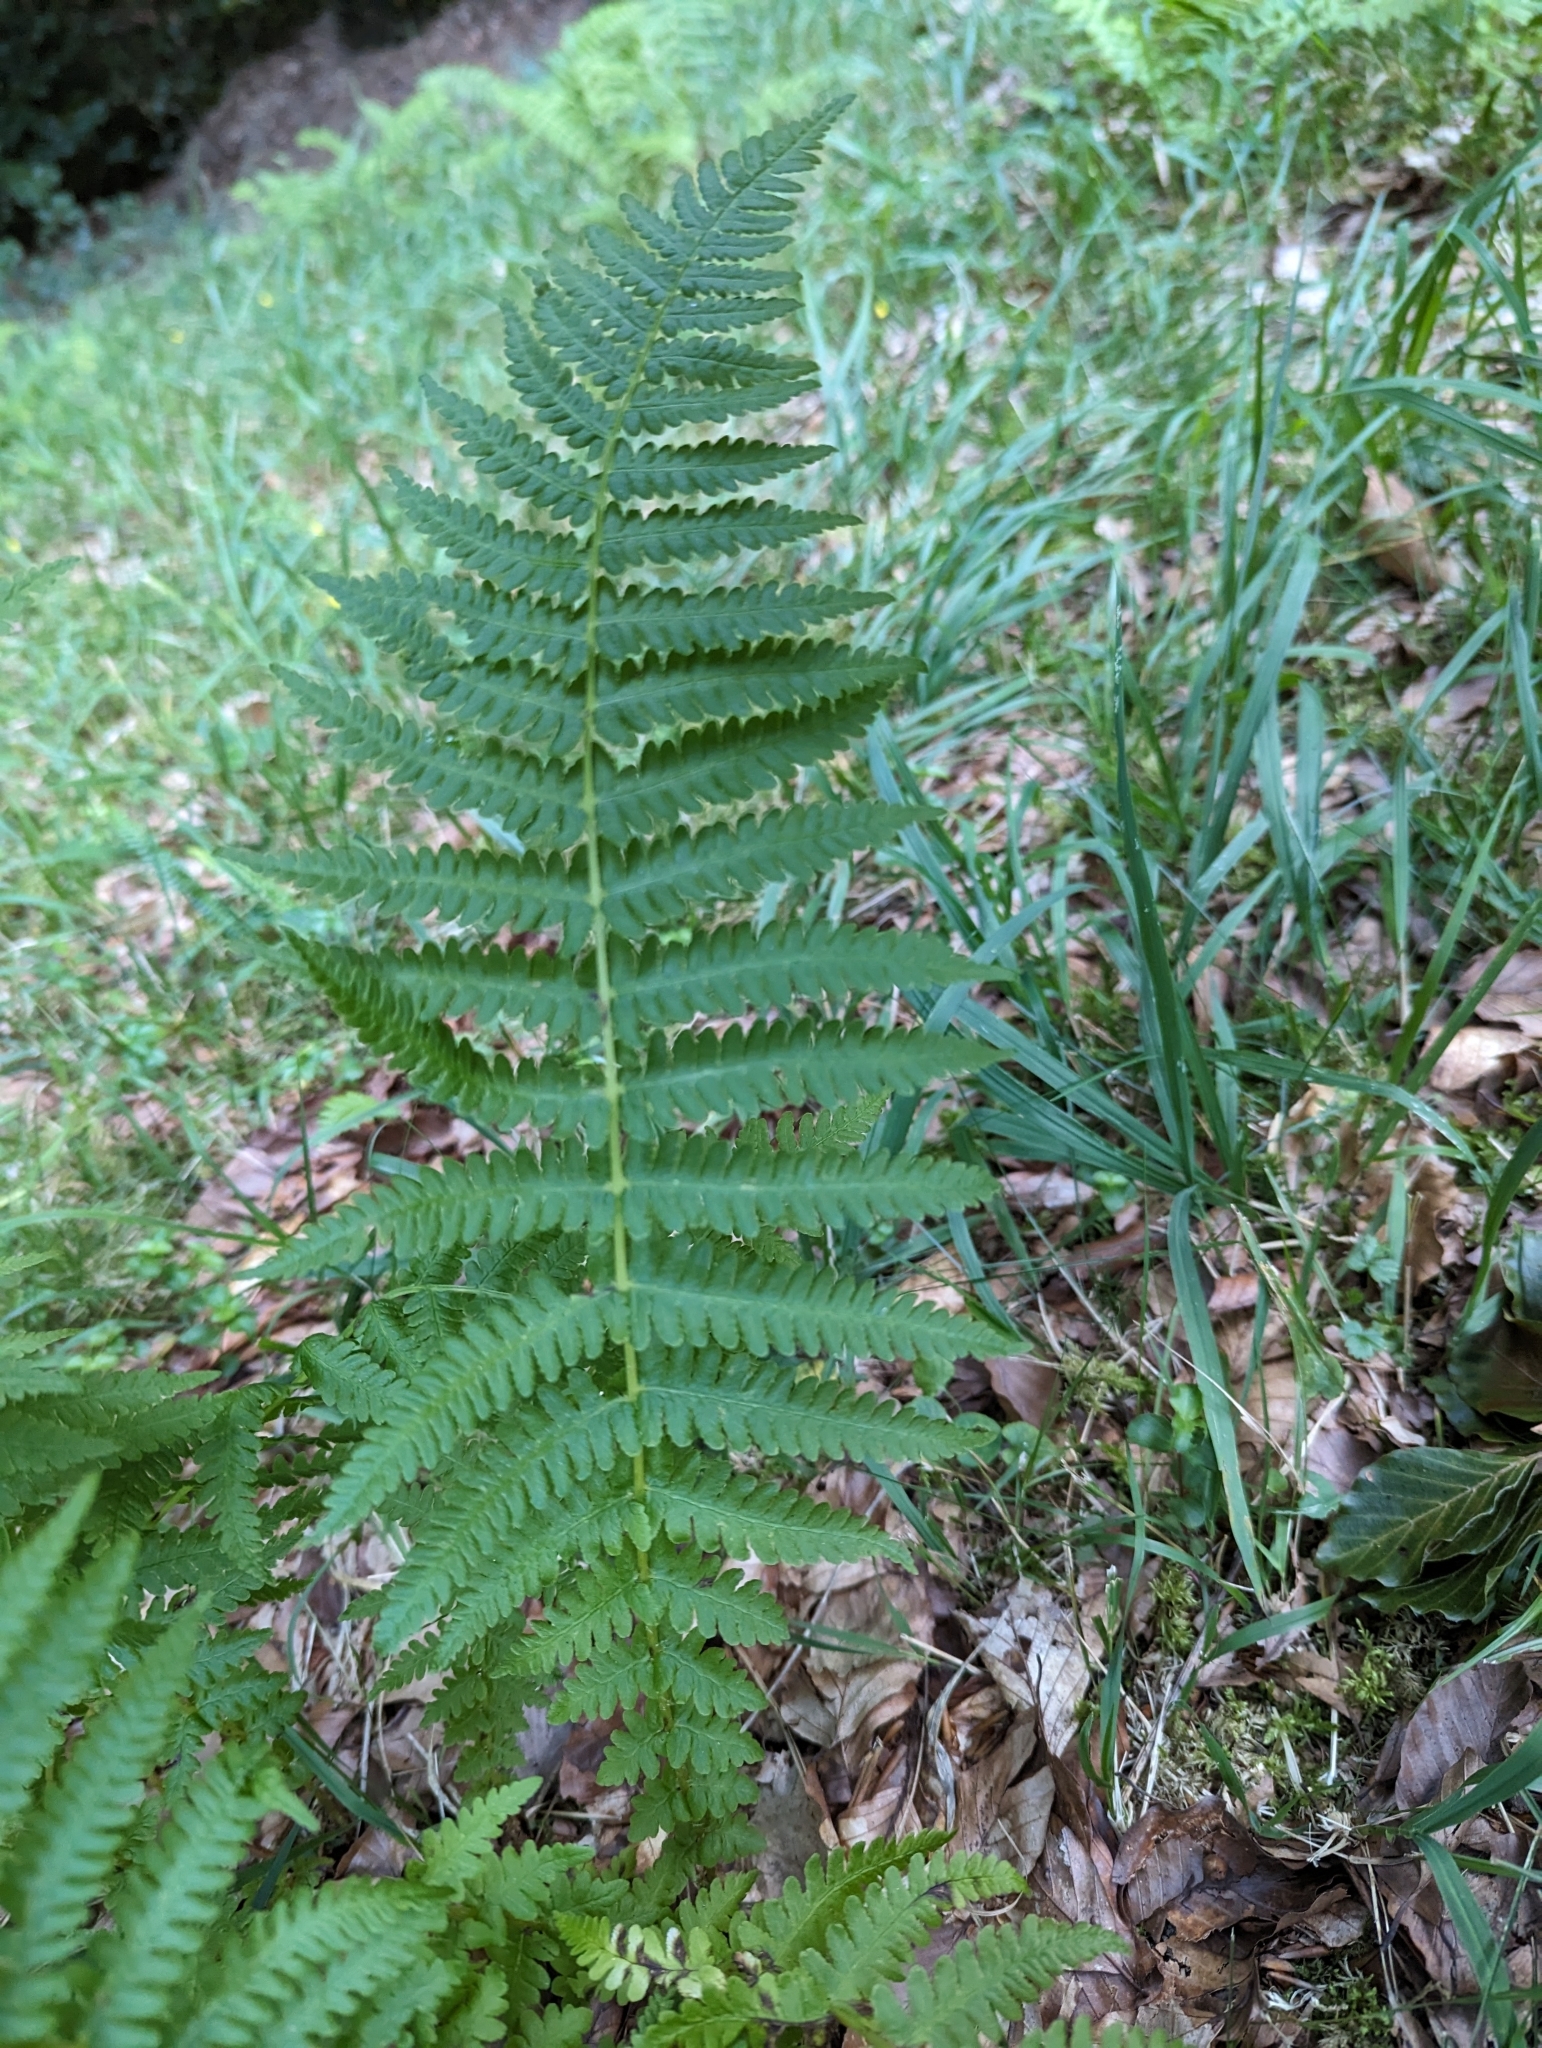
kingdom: Plantae
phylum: Tracheophyta
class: Polypodiopsida
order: Polypodiales
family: Thelypteridaceae
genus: Oreopteris
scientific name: Oreopteris limbosperma
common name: Lemon-scented fern
